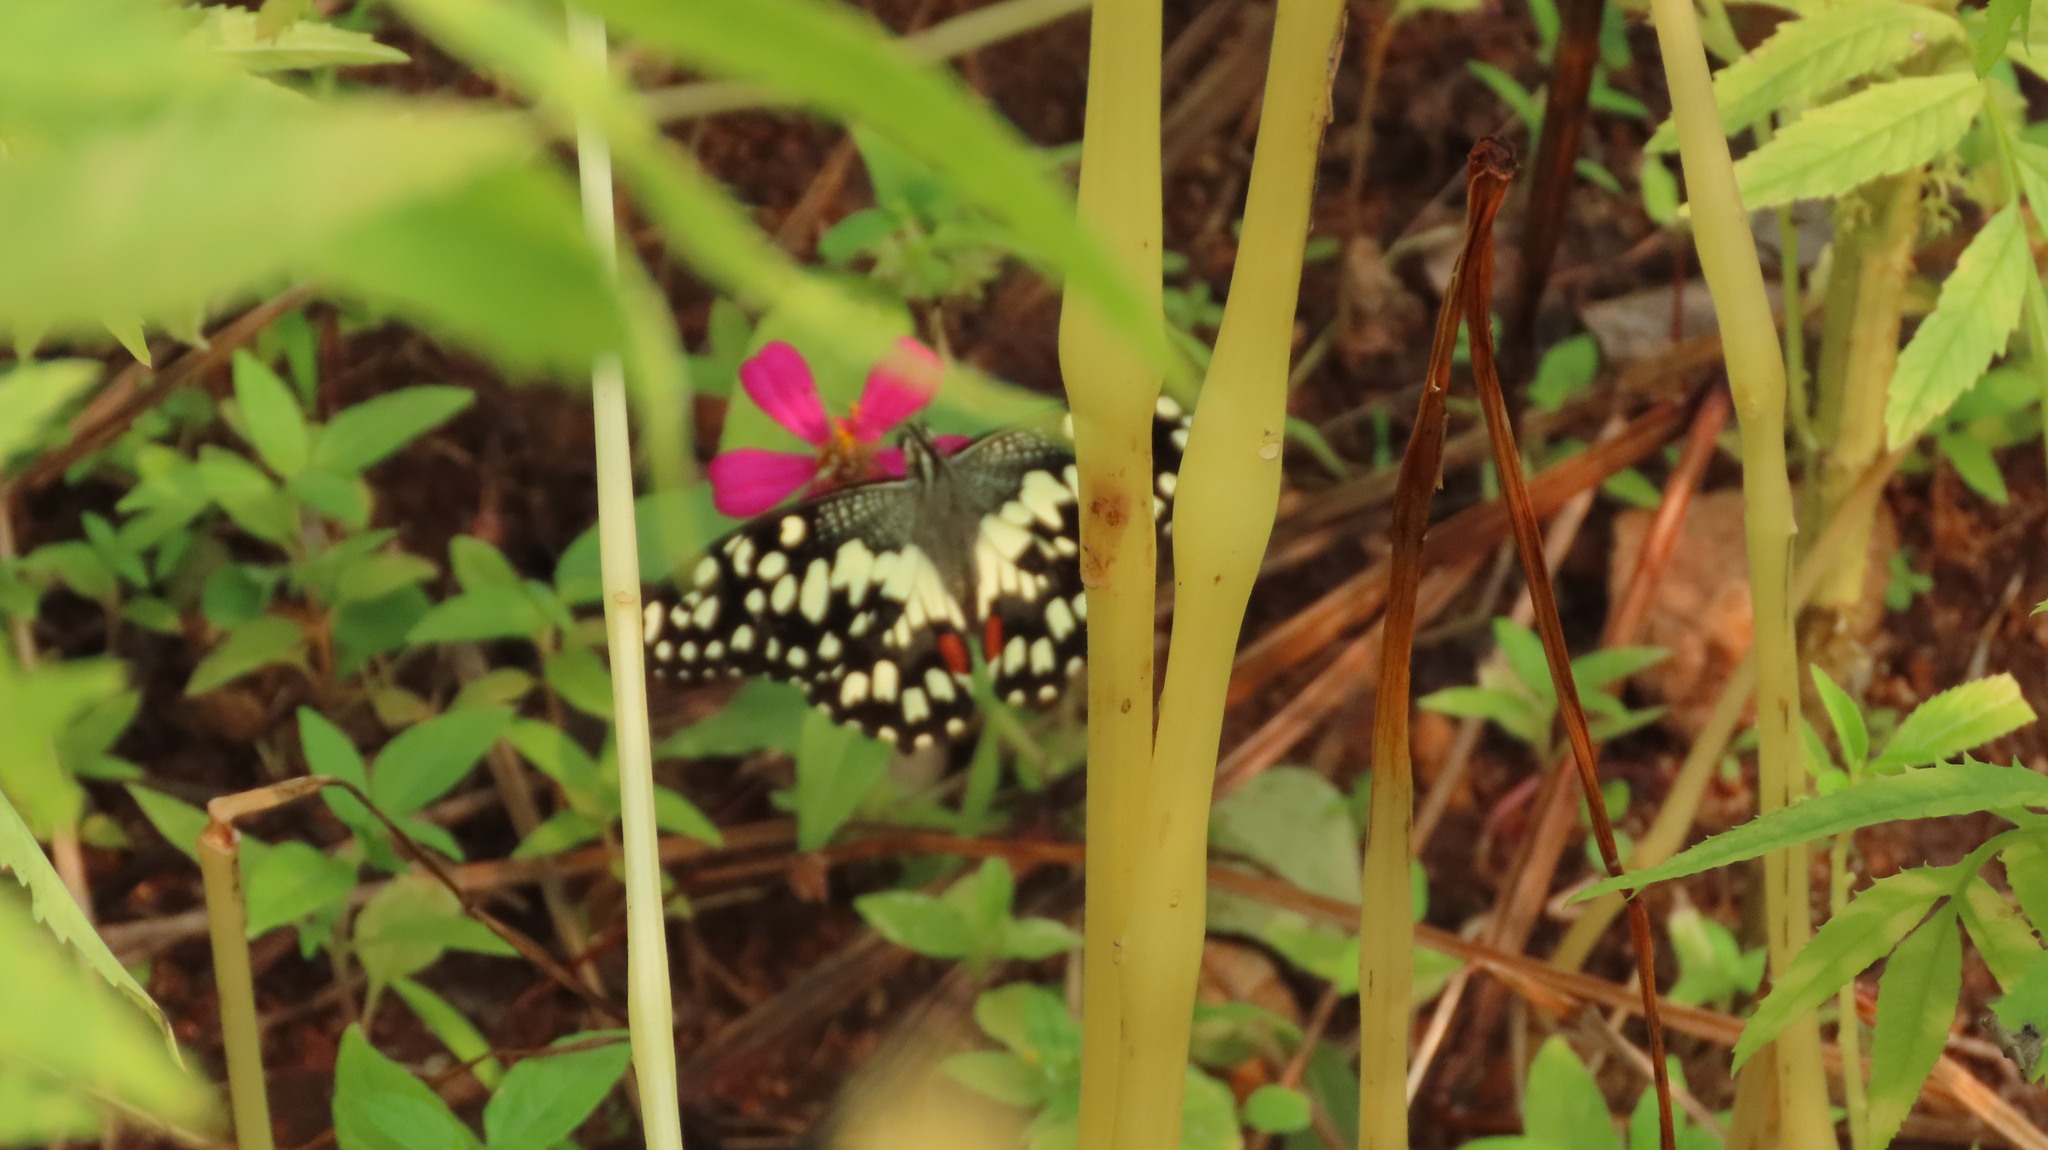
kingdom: Animalia
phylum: Arthropoda
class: Insecta
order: Lepidoptera
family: Papilionidae
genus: Papilio
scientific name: Papilio demoleus
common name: Lime butterfly
